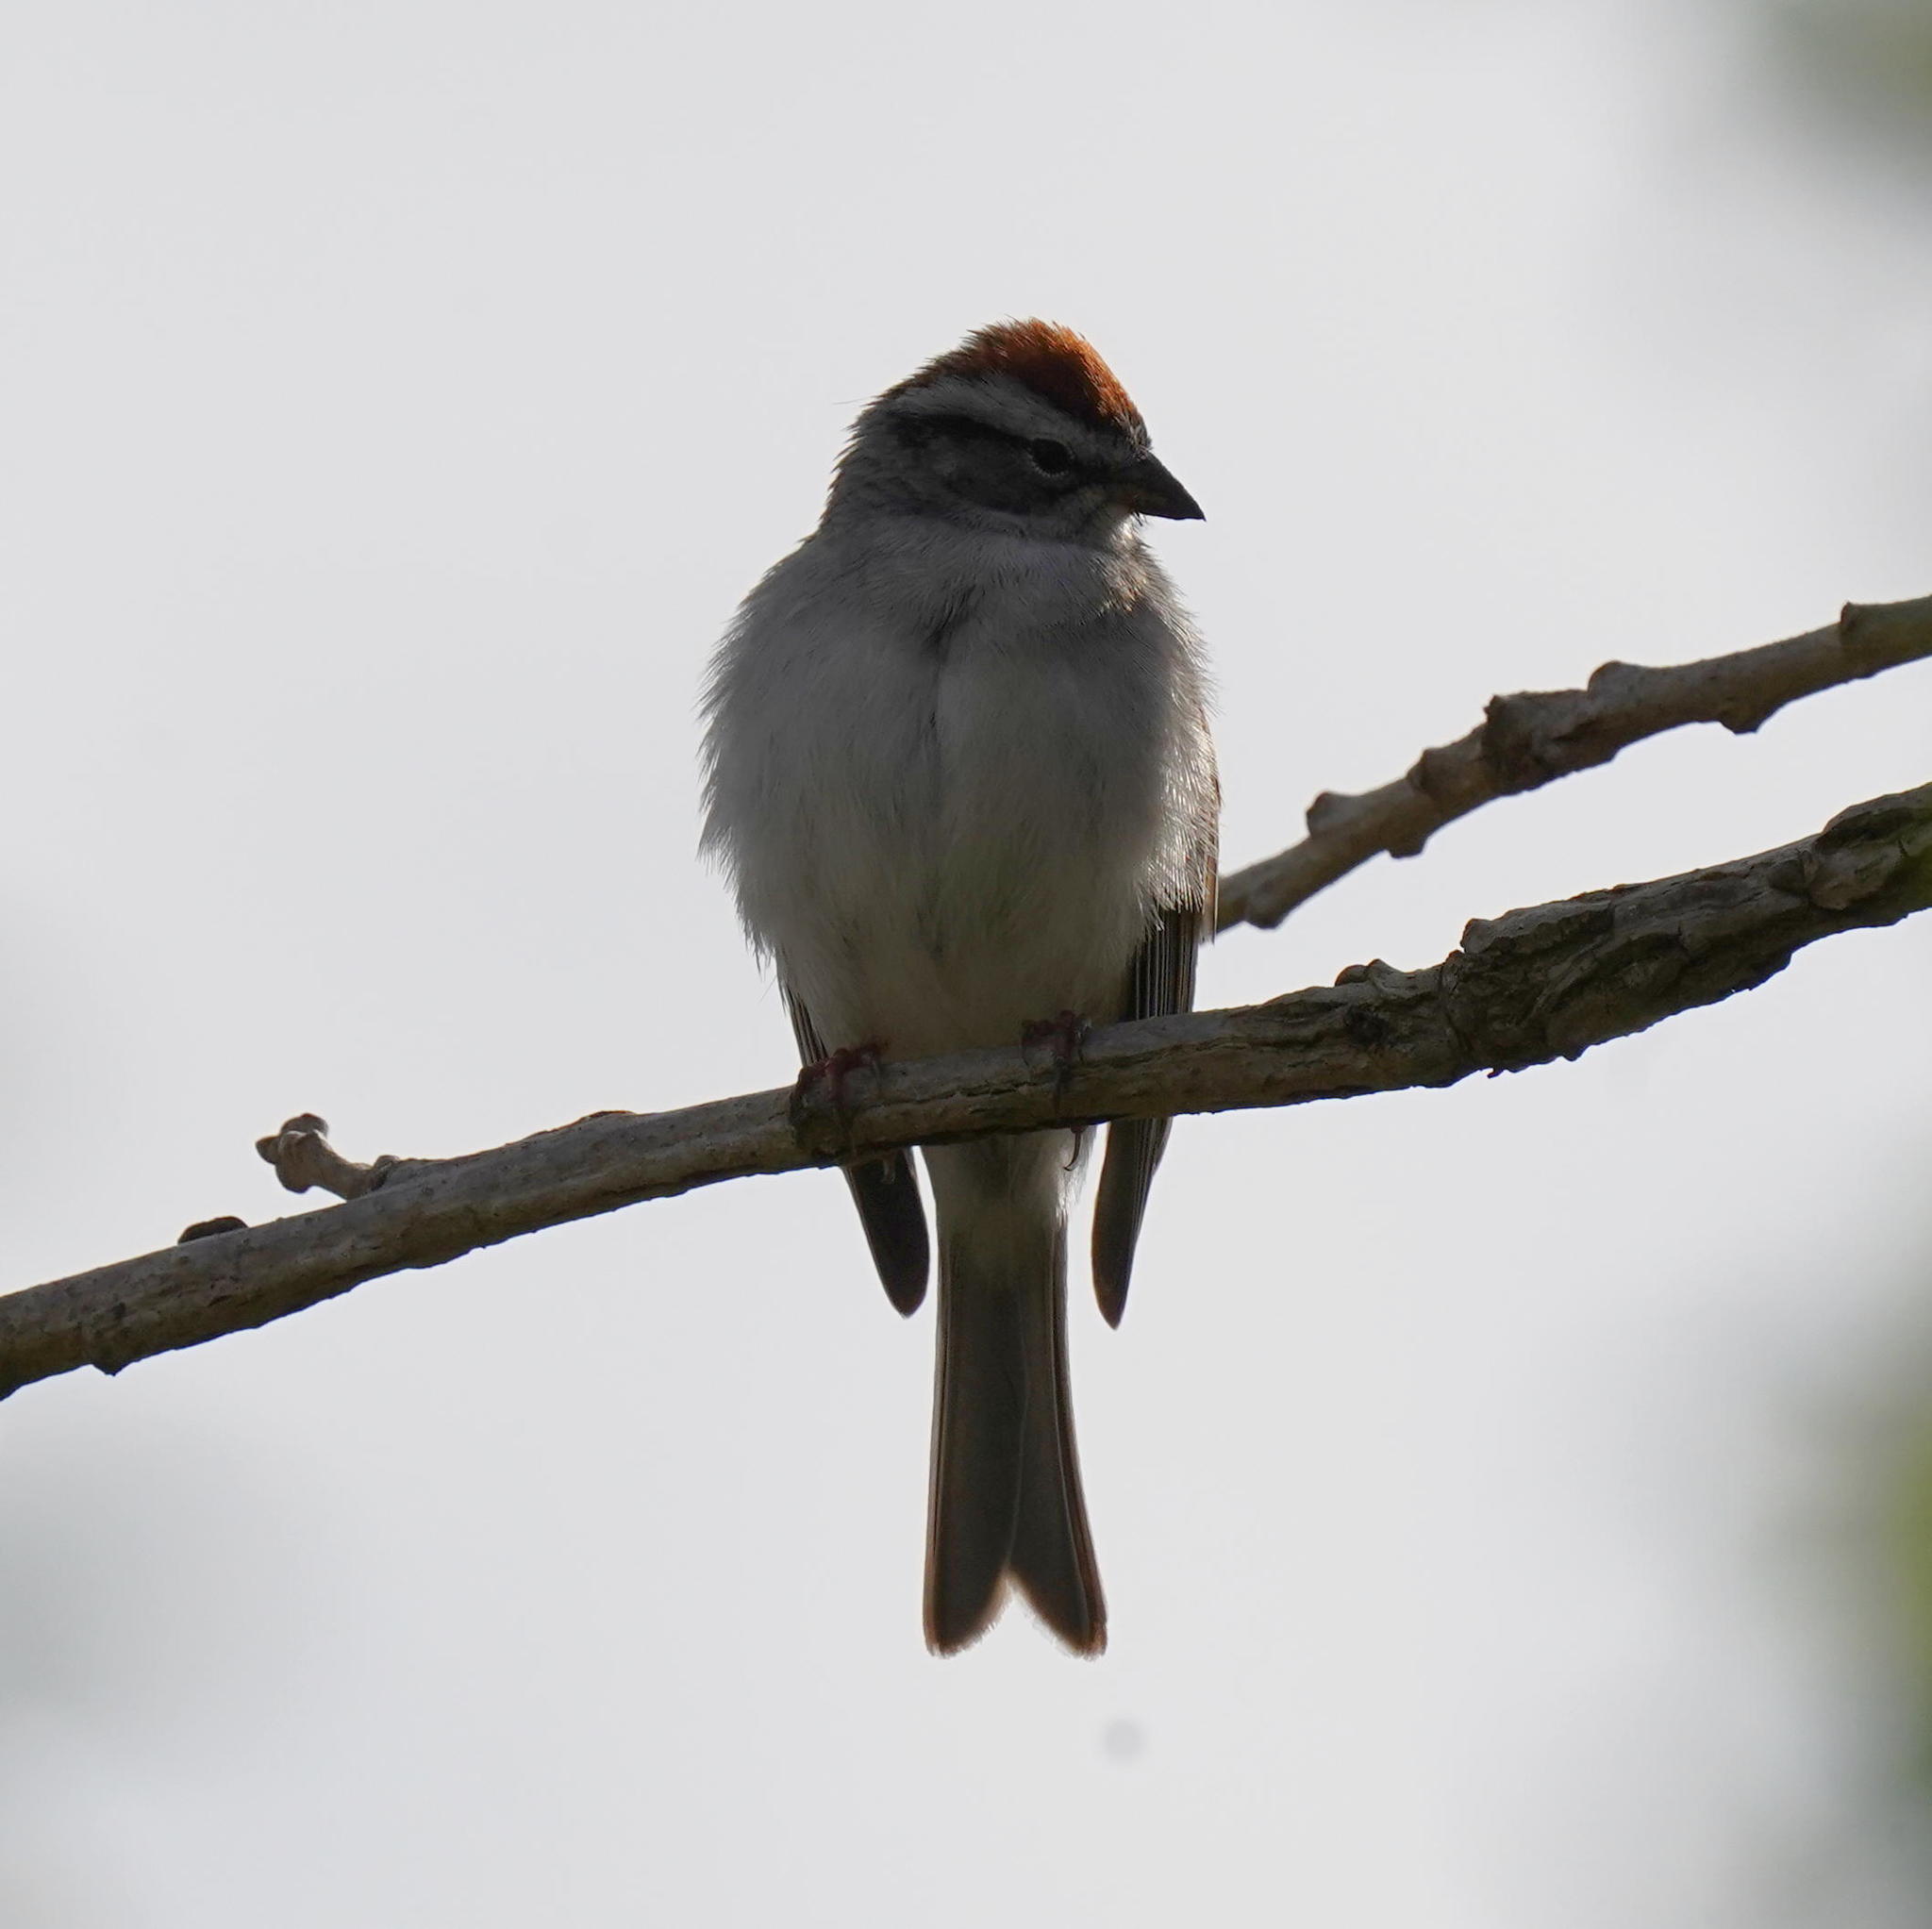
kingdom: Animalia
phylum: Chordata
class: Aves
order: Passeriformes
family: Passerellidae
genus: Spizella
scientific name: Spizella passerina
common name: Chipping sparrow
